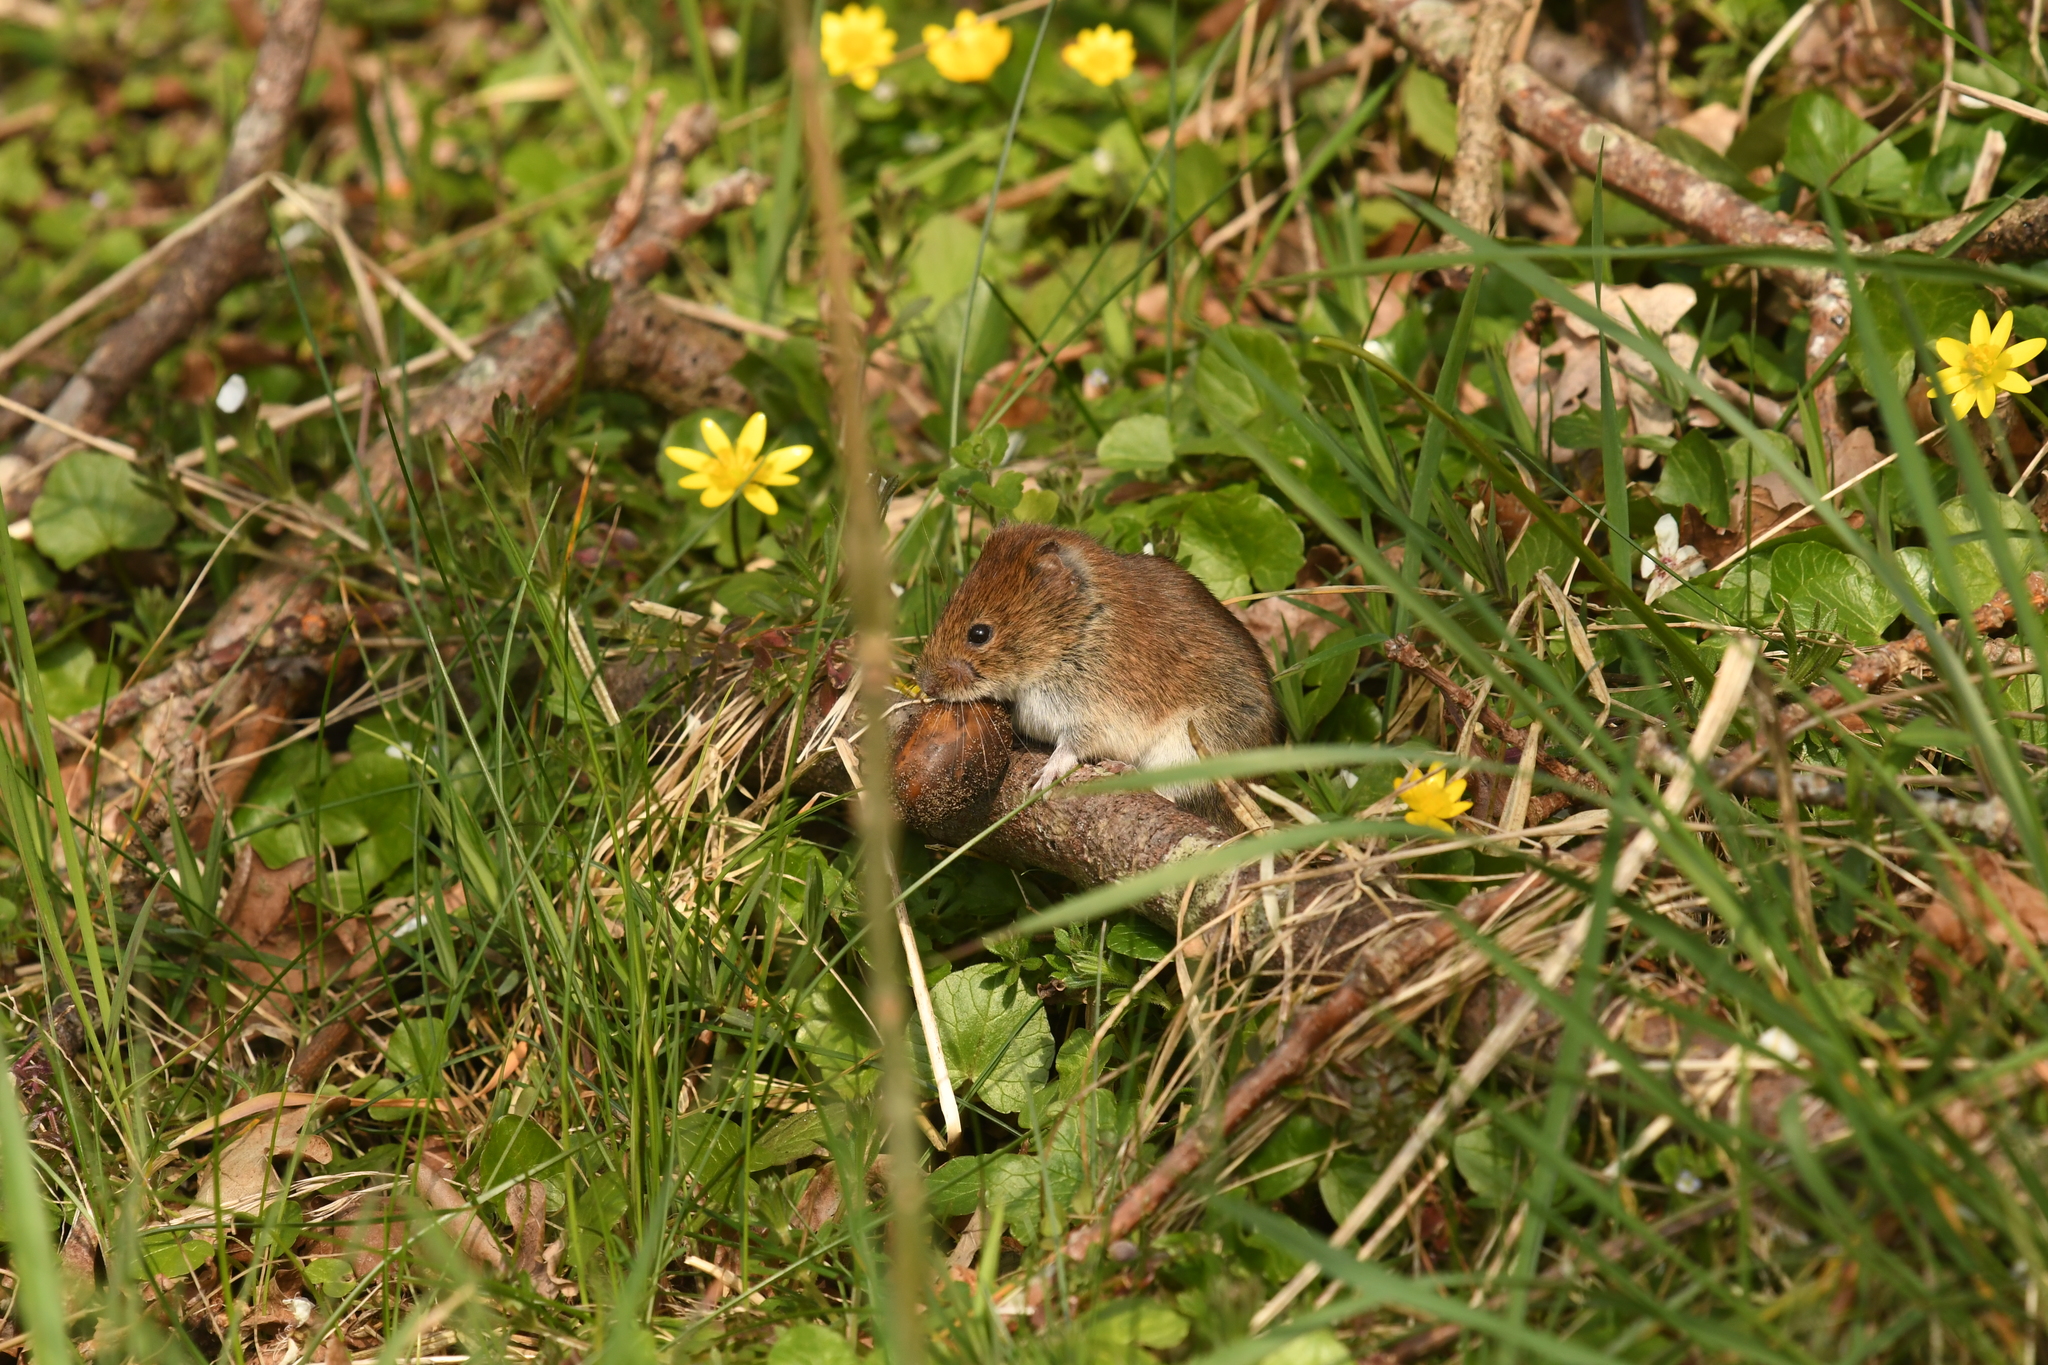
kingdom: Animalia
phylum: Chordata
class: Mammalia
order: Rodentia
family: Cricetidae
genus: Myodes
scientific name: Myodes glareolus
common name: Bank vole
